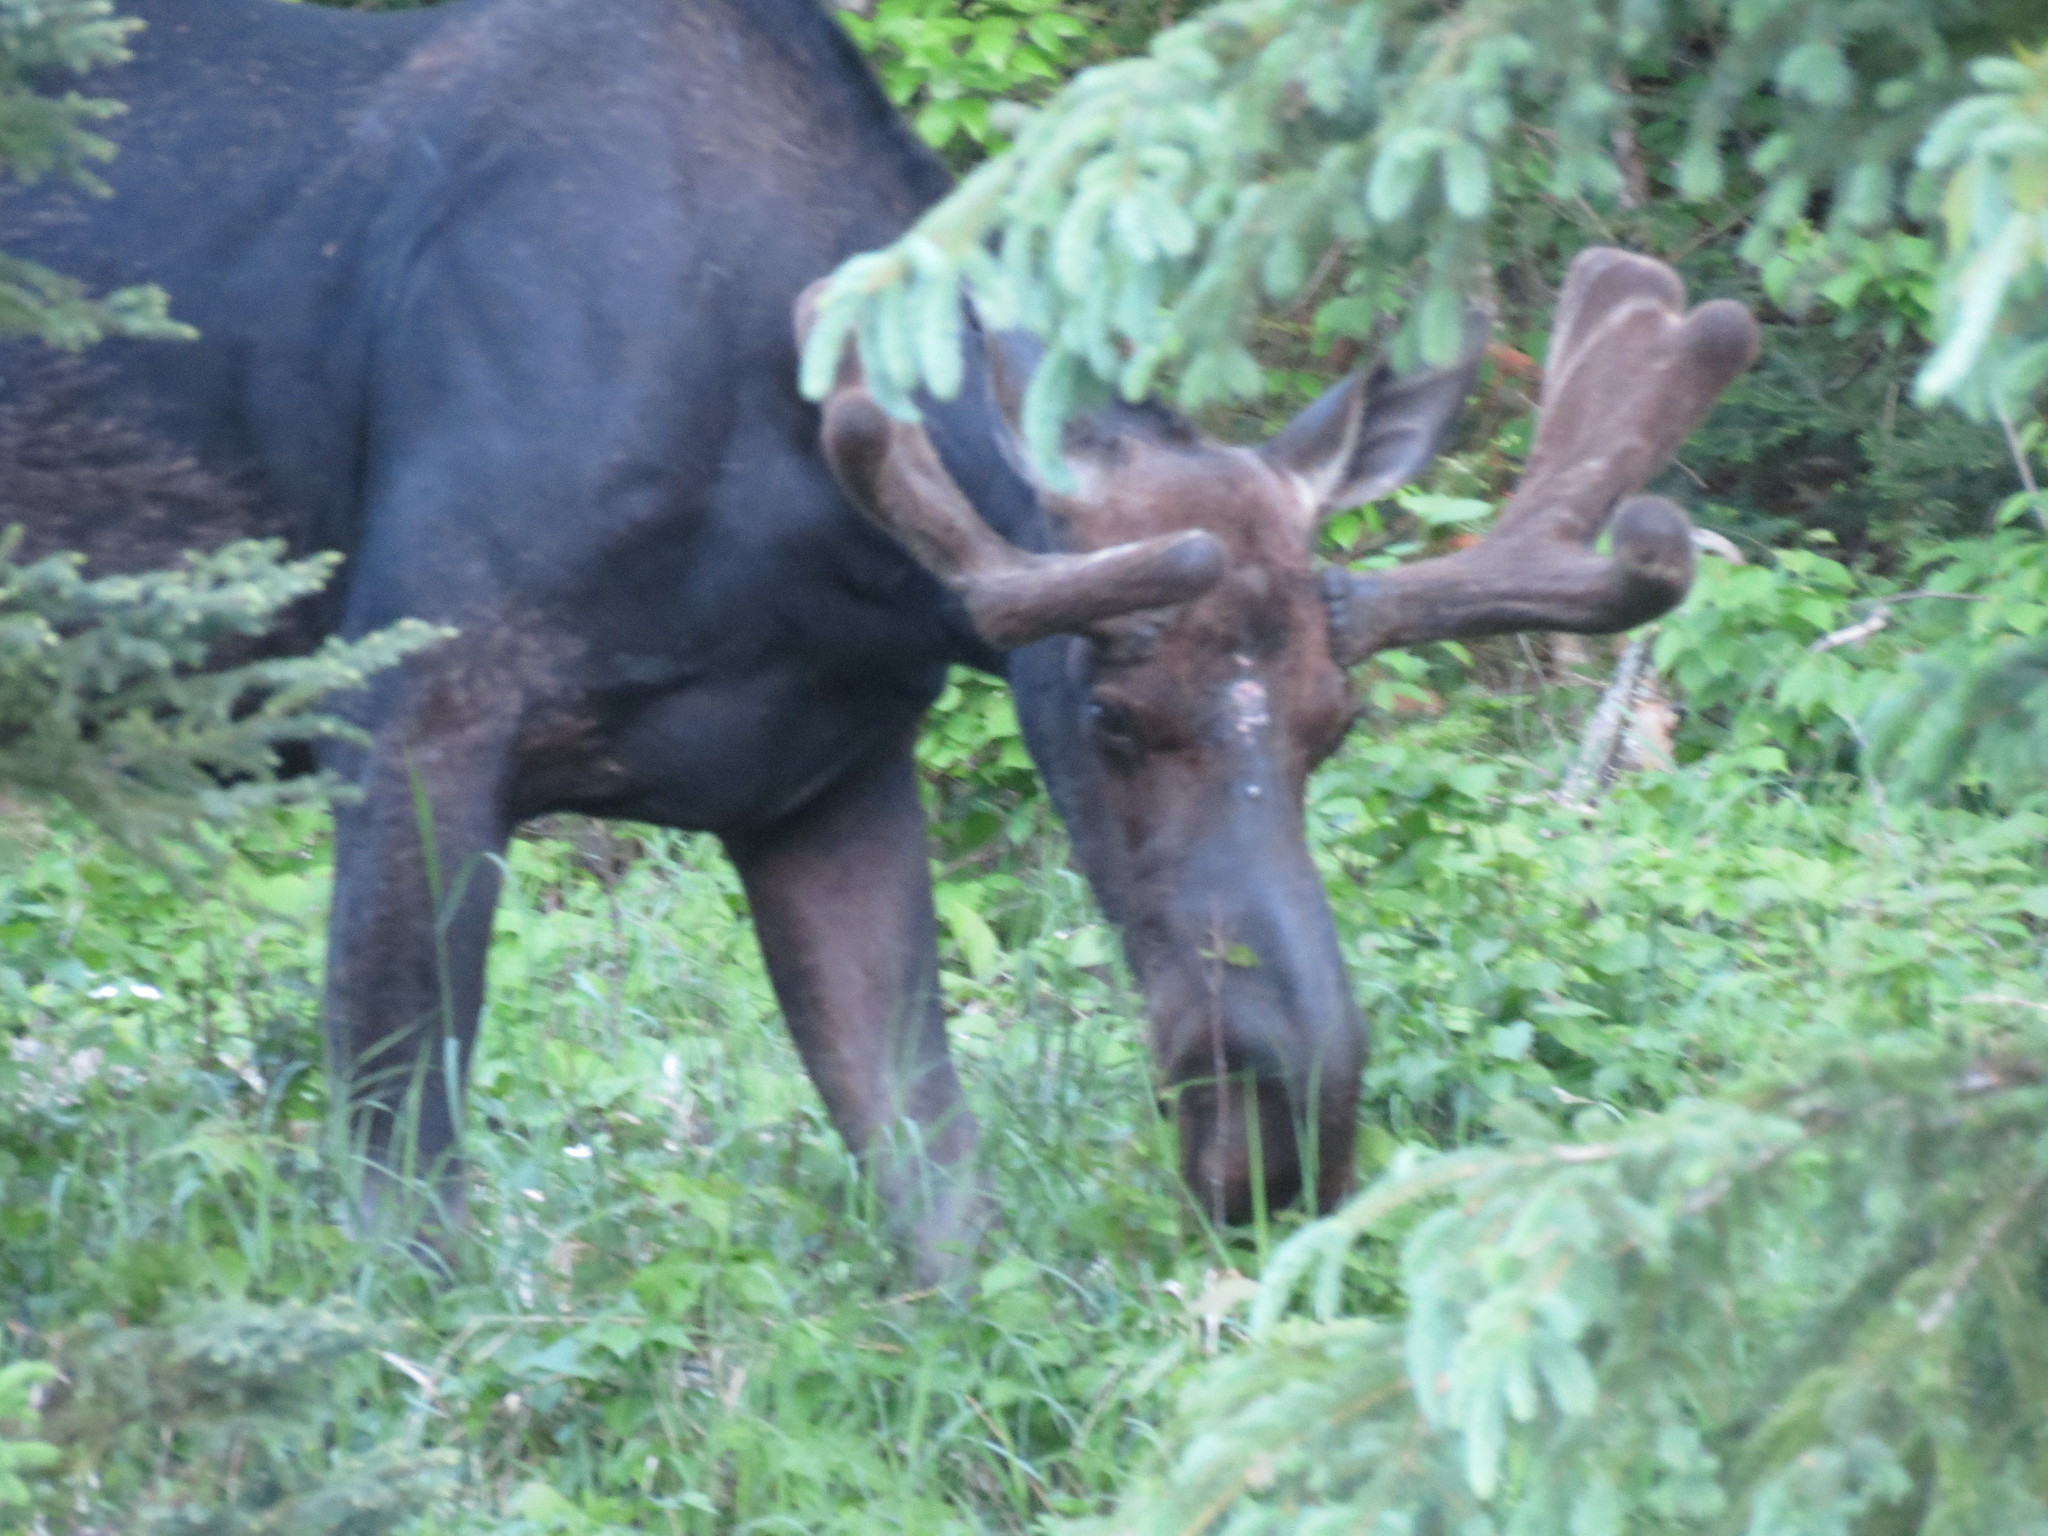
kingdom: Animalia
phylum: Chordata
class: Mammalia
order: Artiodactyla
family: Cervidae
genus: Alces
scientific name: Alces alces
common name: Moose
